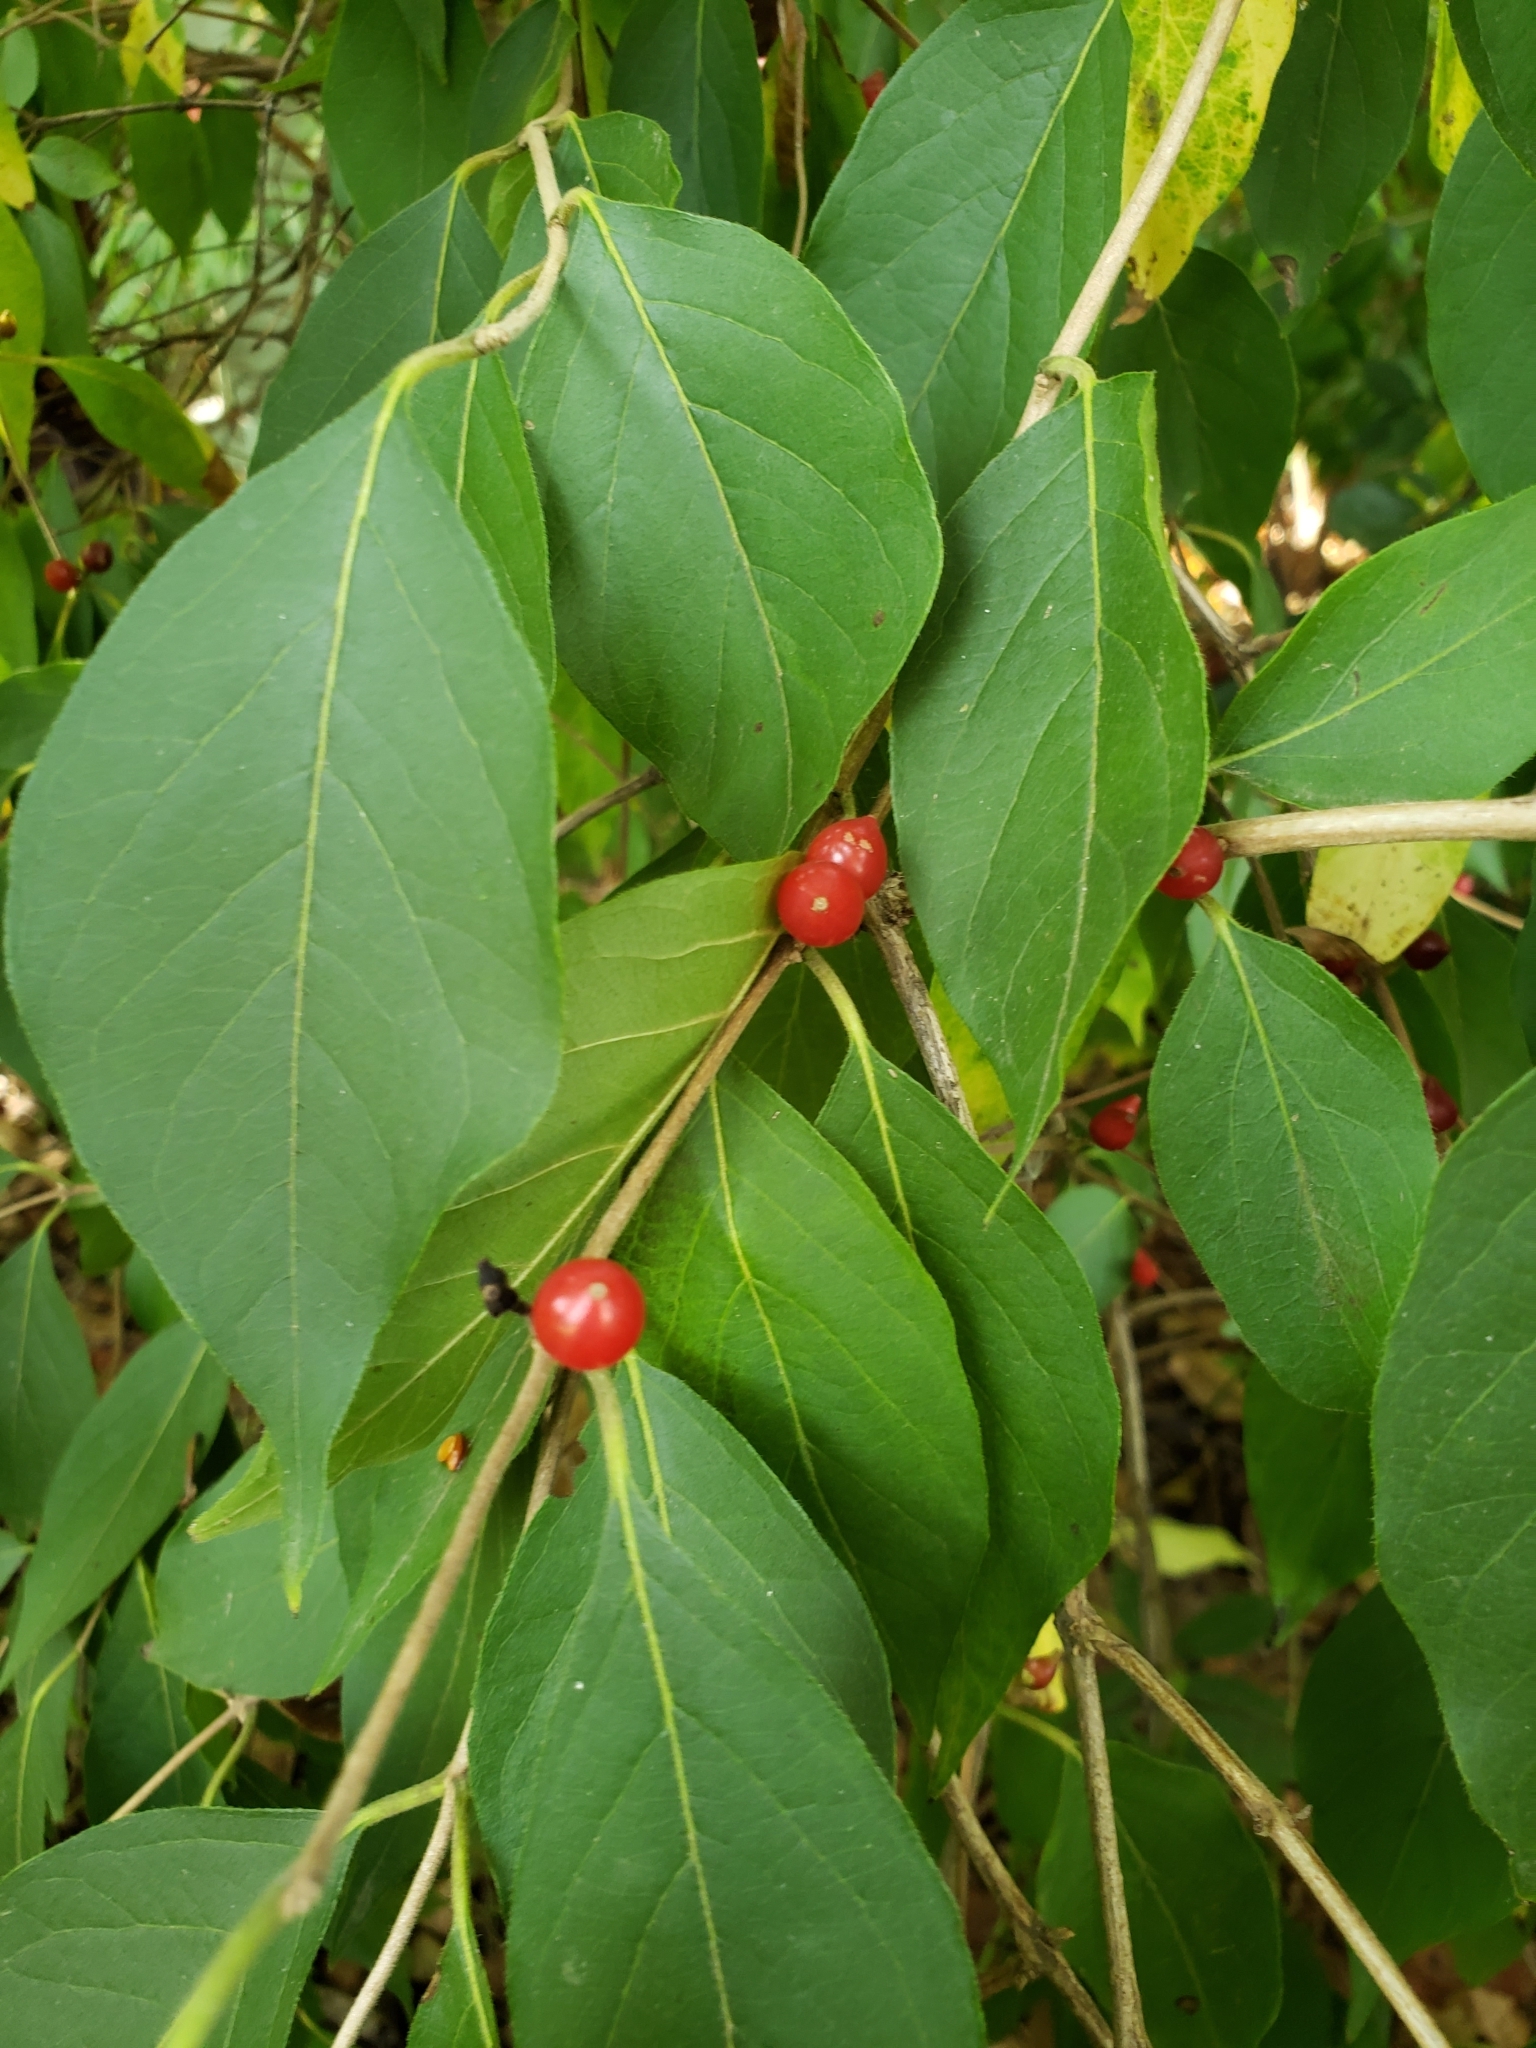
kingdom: Plantae
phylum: Tracheophyta
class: Magnoliopsida
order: Dipsacales
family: Caprifoliaceae
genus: Lonicera
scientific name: Lonicera maackii
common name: Amur honeysuckle
